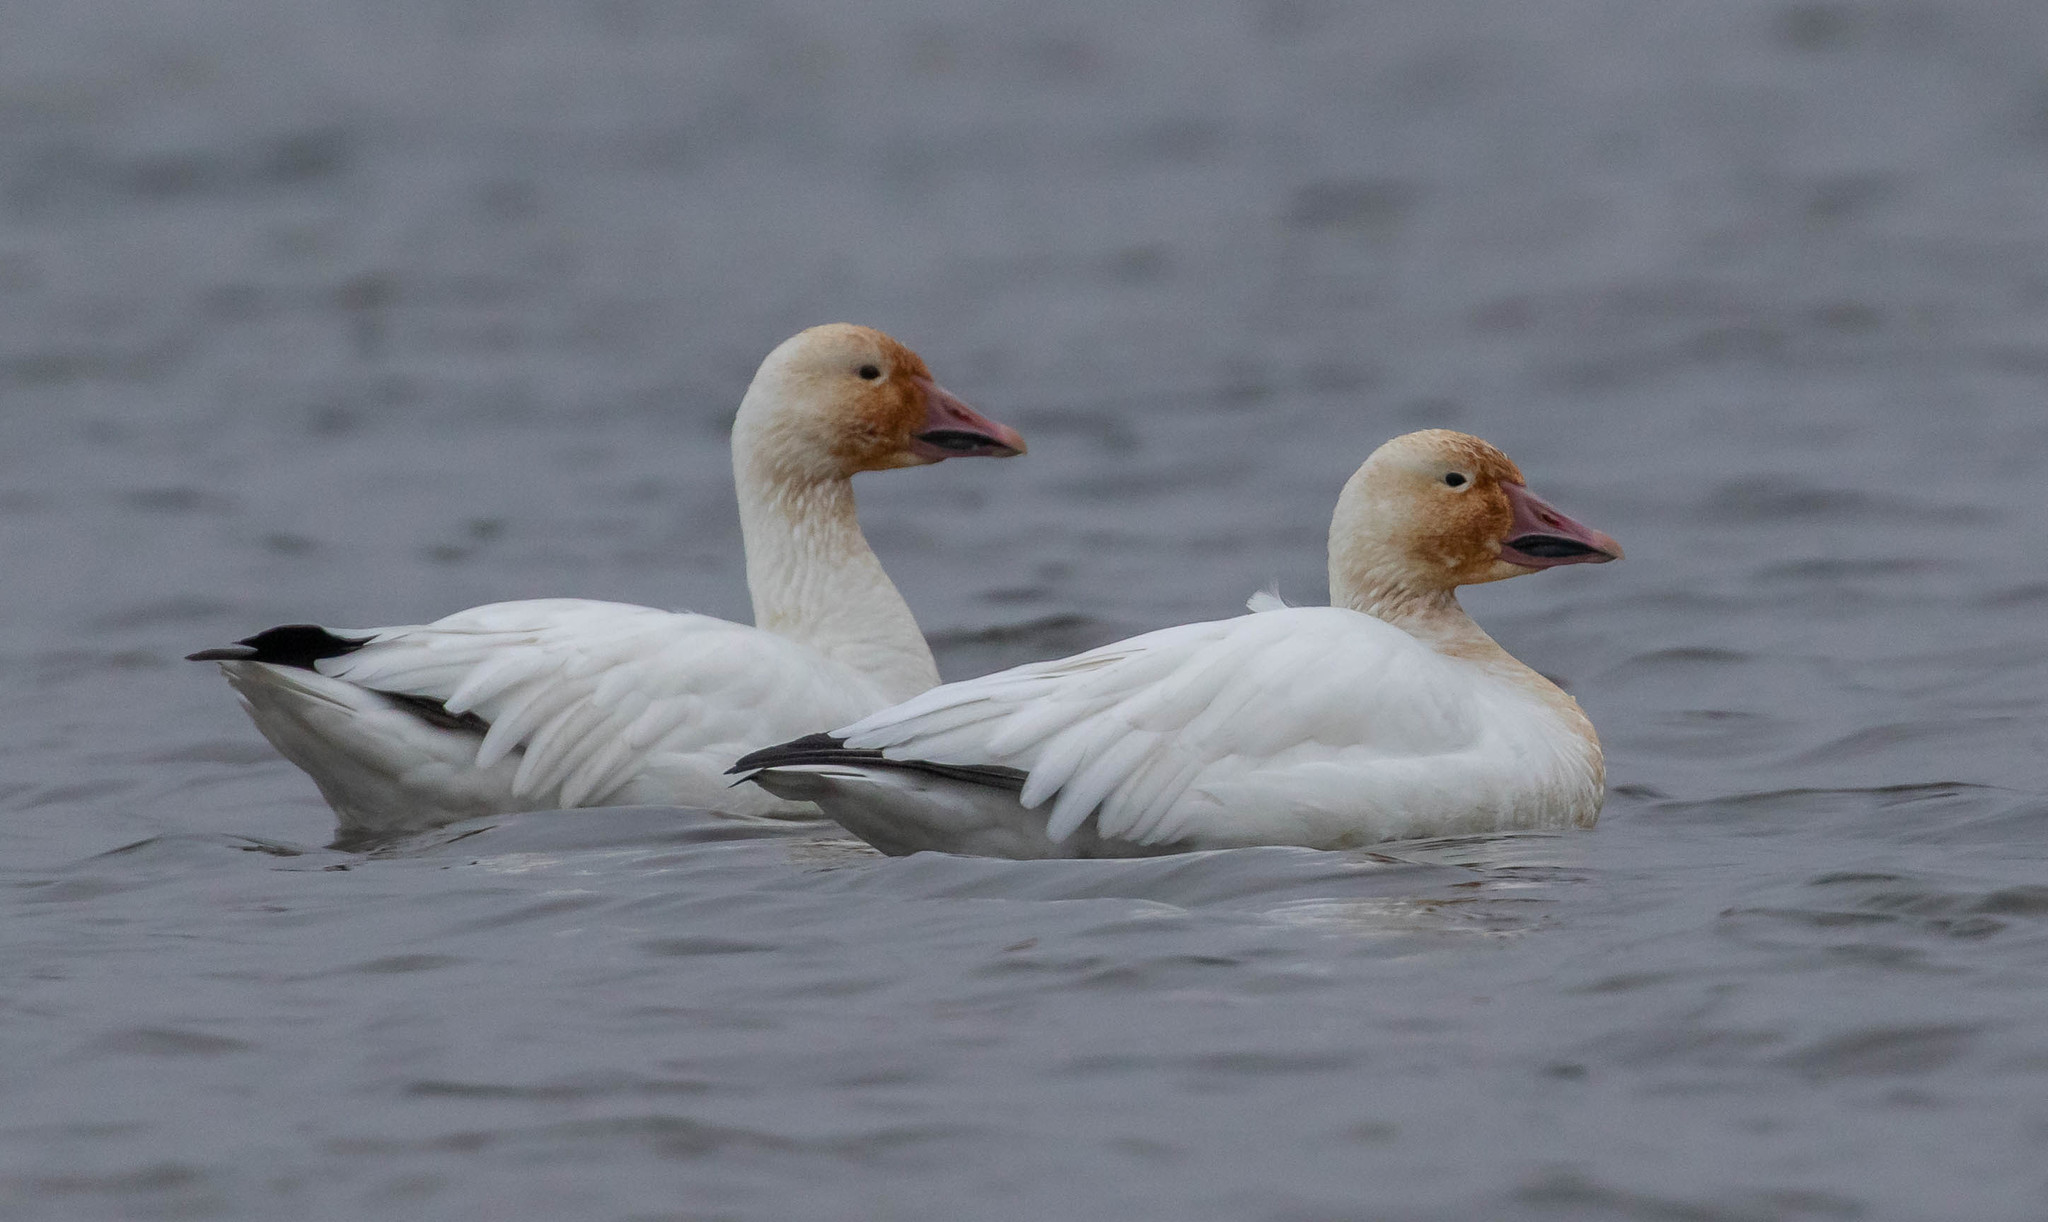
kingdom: Animalia
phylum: Chordata
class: Aves
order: Anseriformes
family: Anatidae
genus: Anser
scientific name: Anser caerulescens
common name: Snow goose
